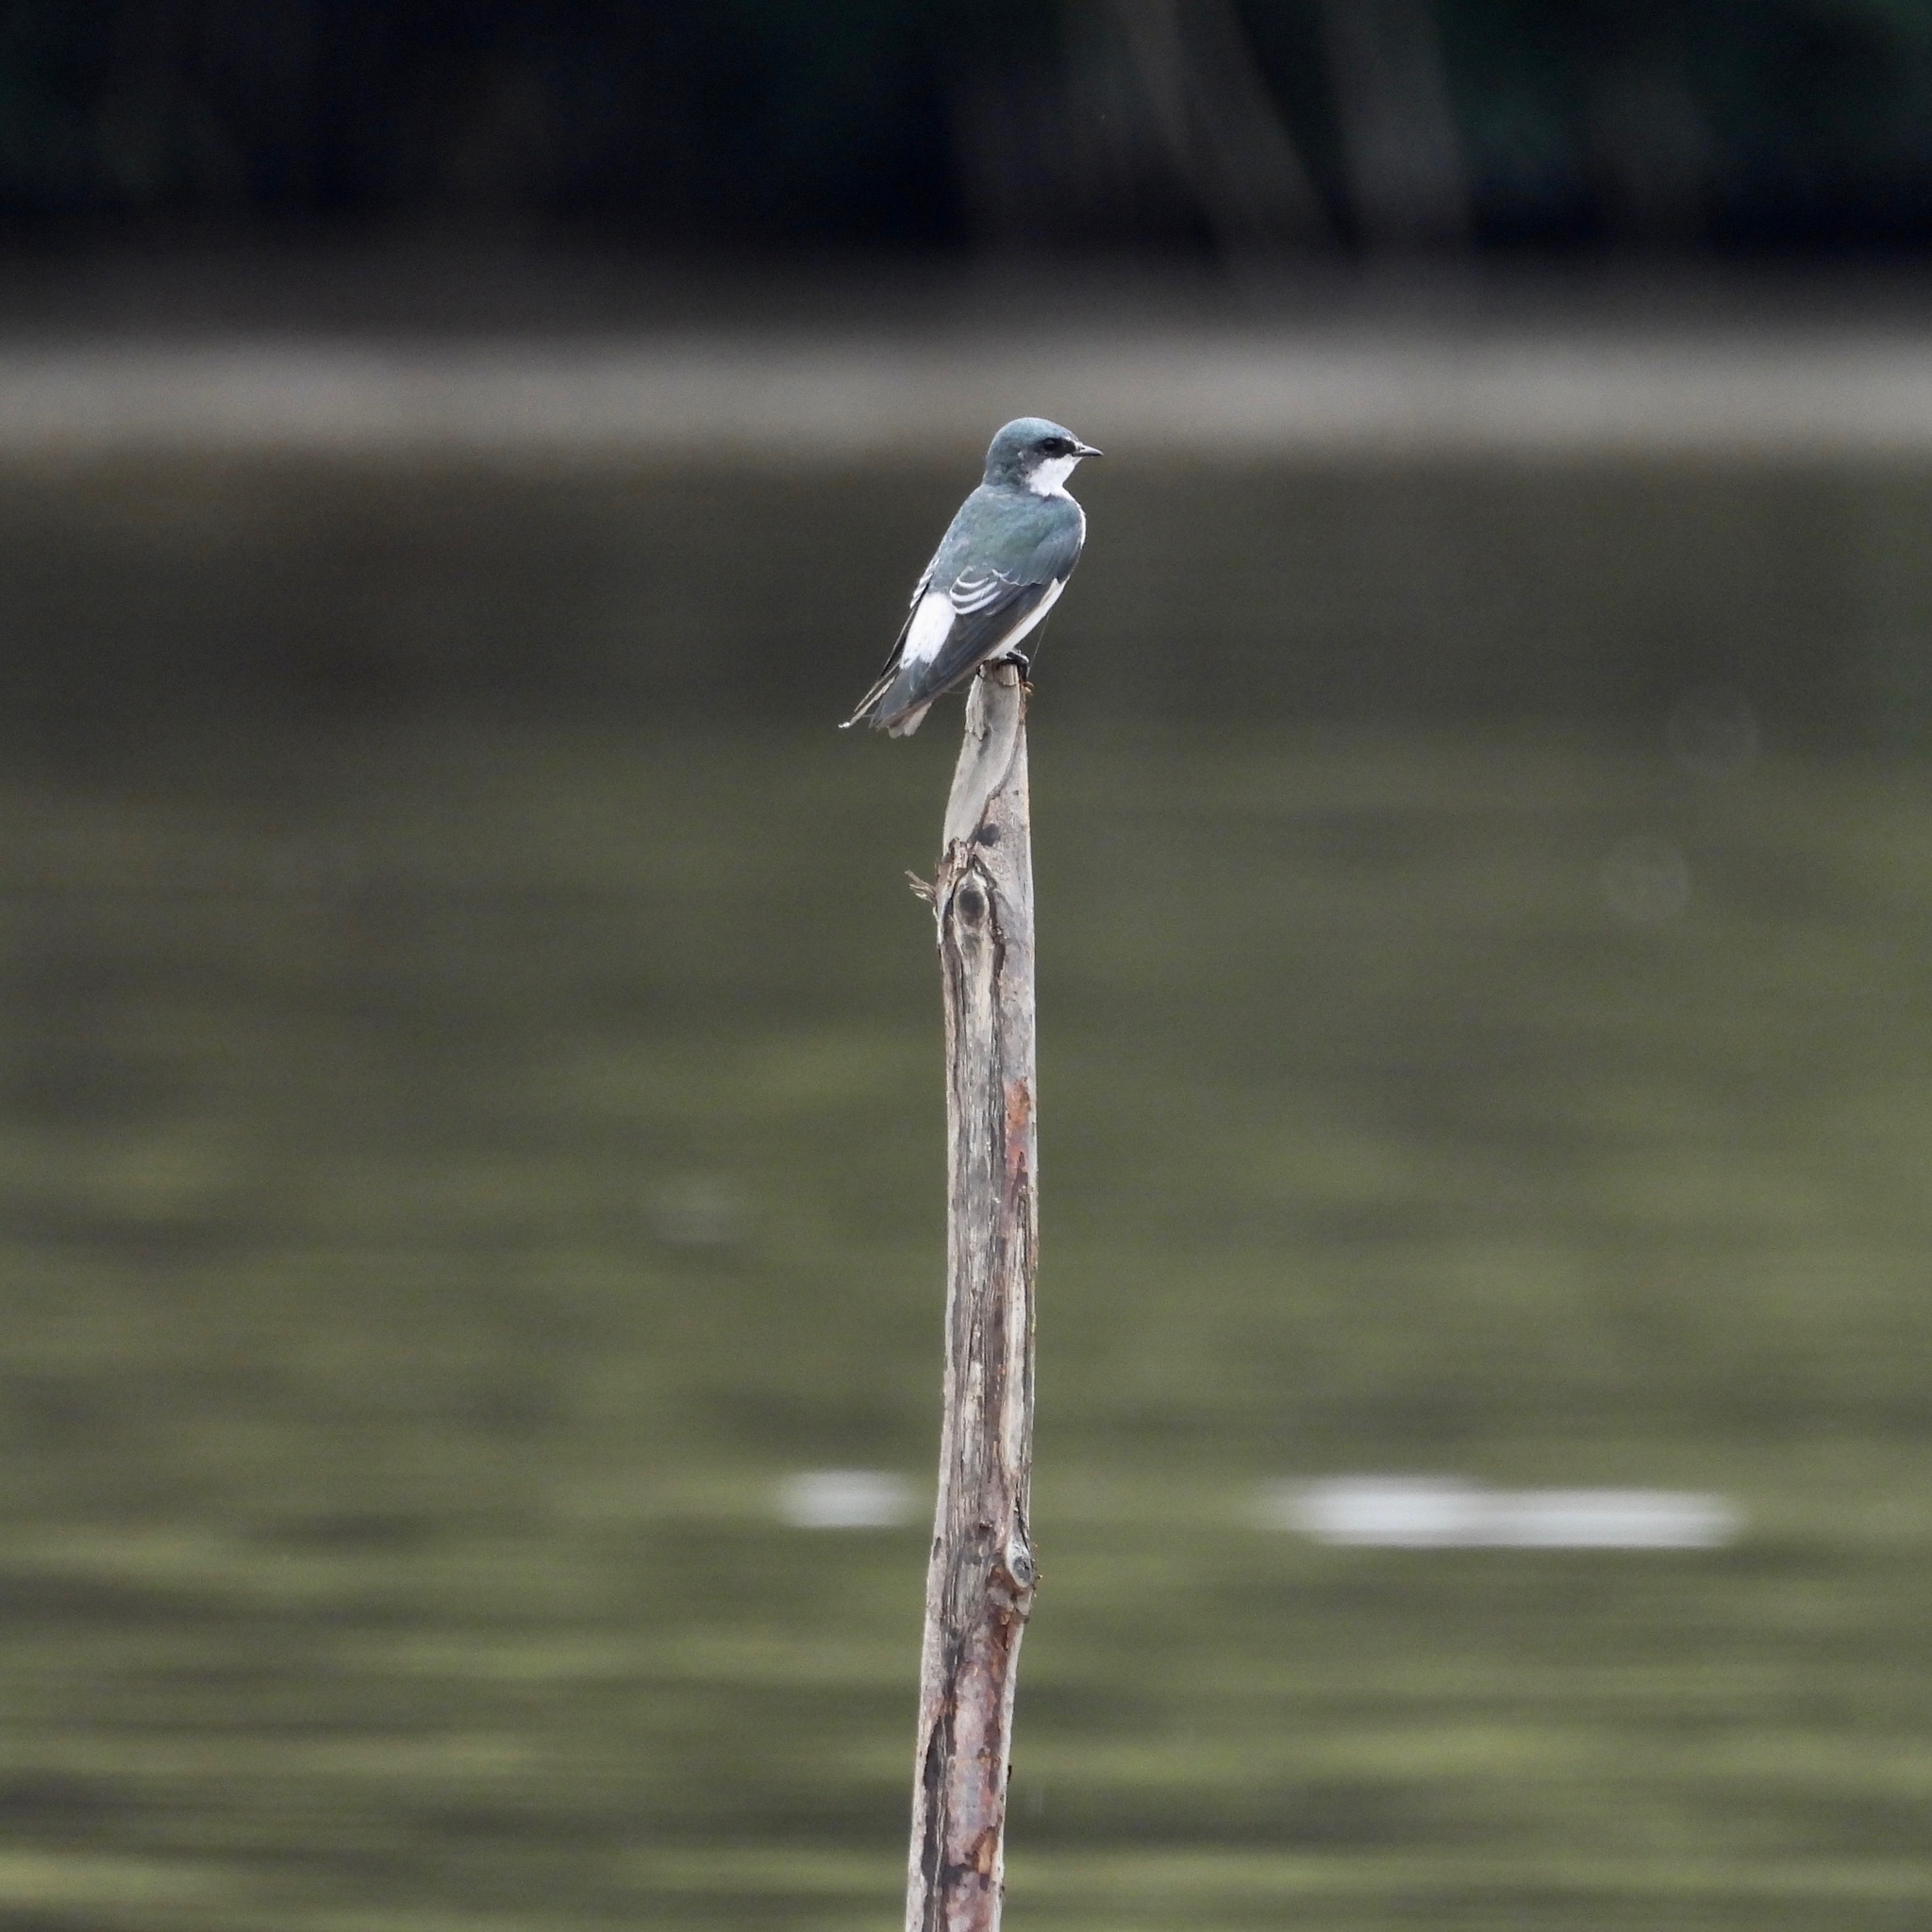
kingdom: Animalia
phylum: Chordata
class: Aves
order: Passeriformes
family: Hirundinidae
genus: Tachycineta
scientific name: Tachycineta albilinea
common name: Mangrove swallow
